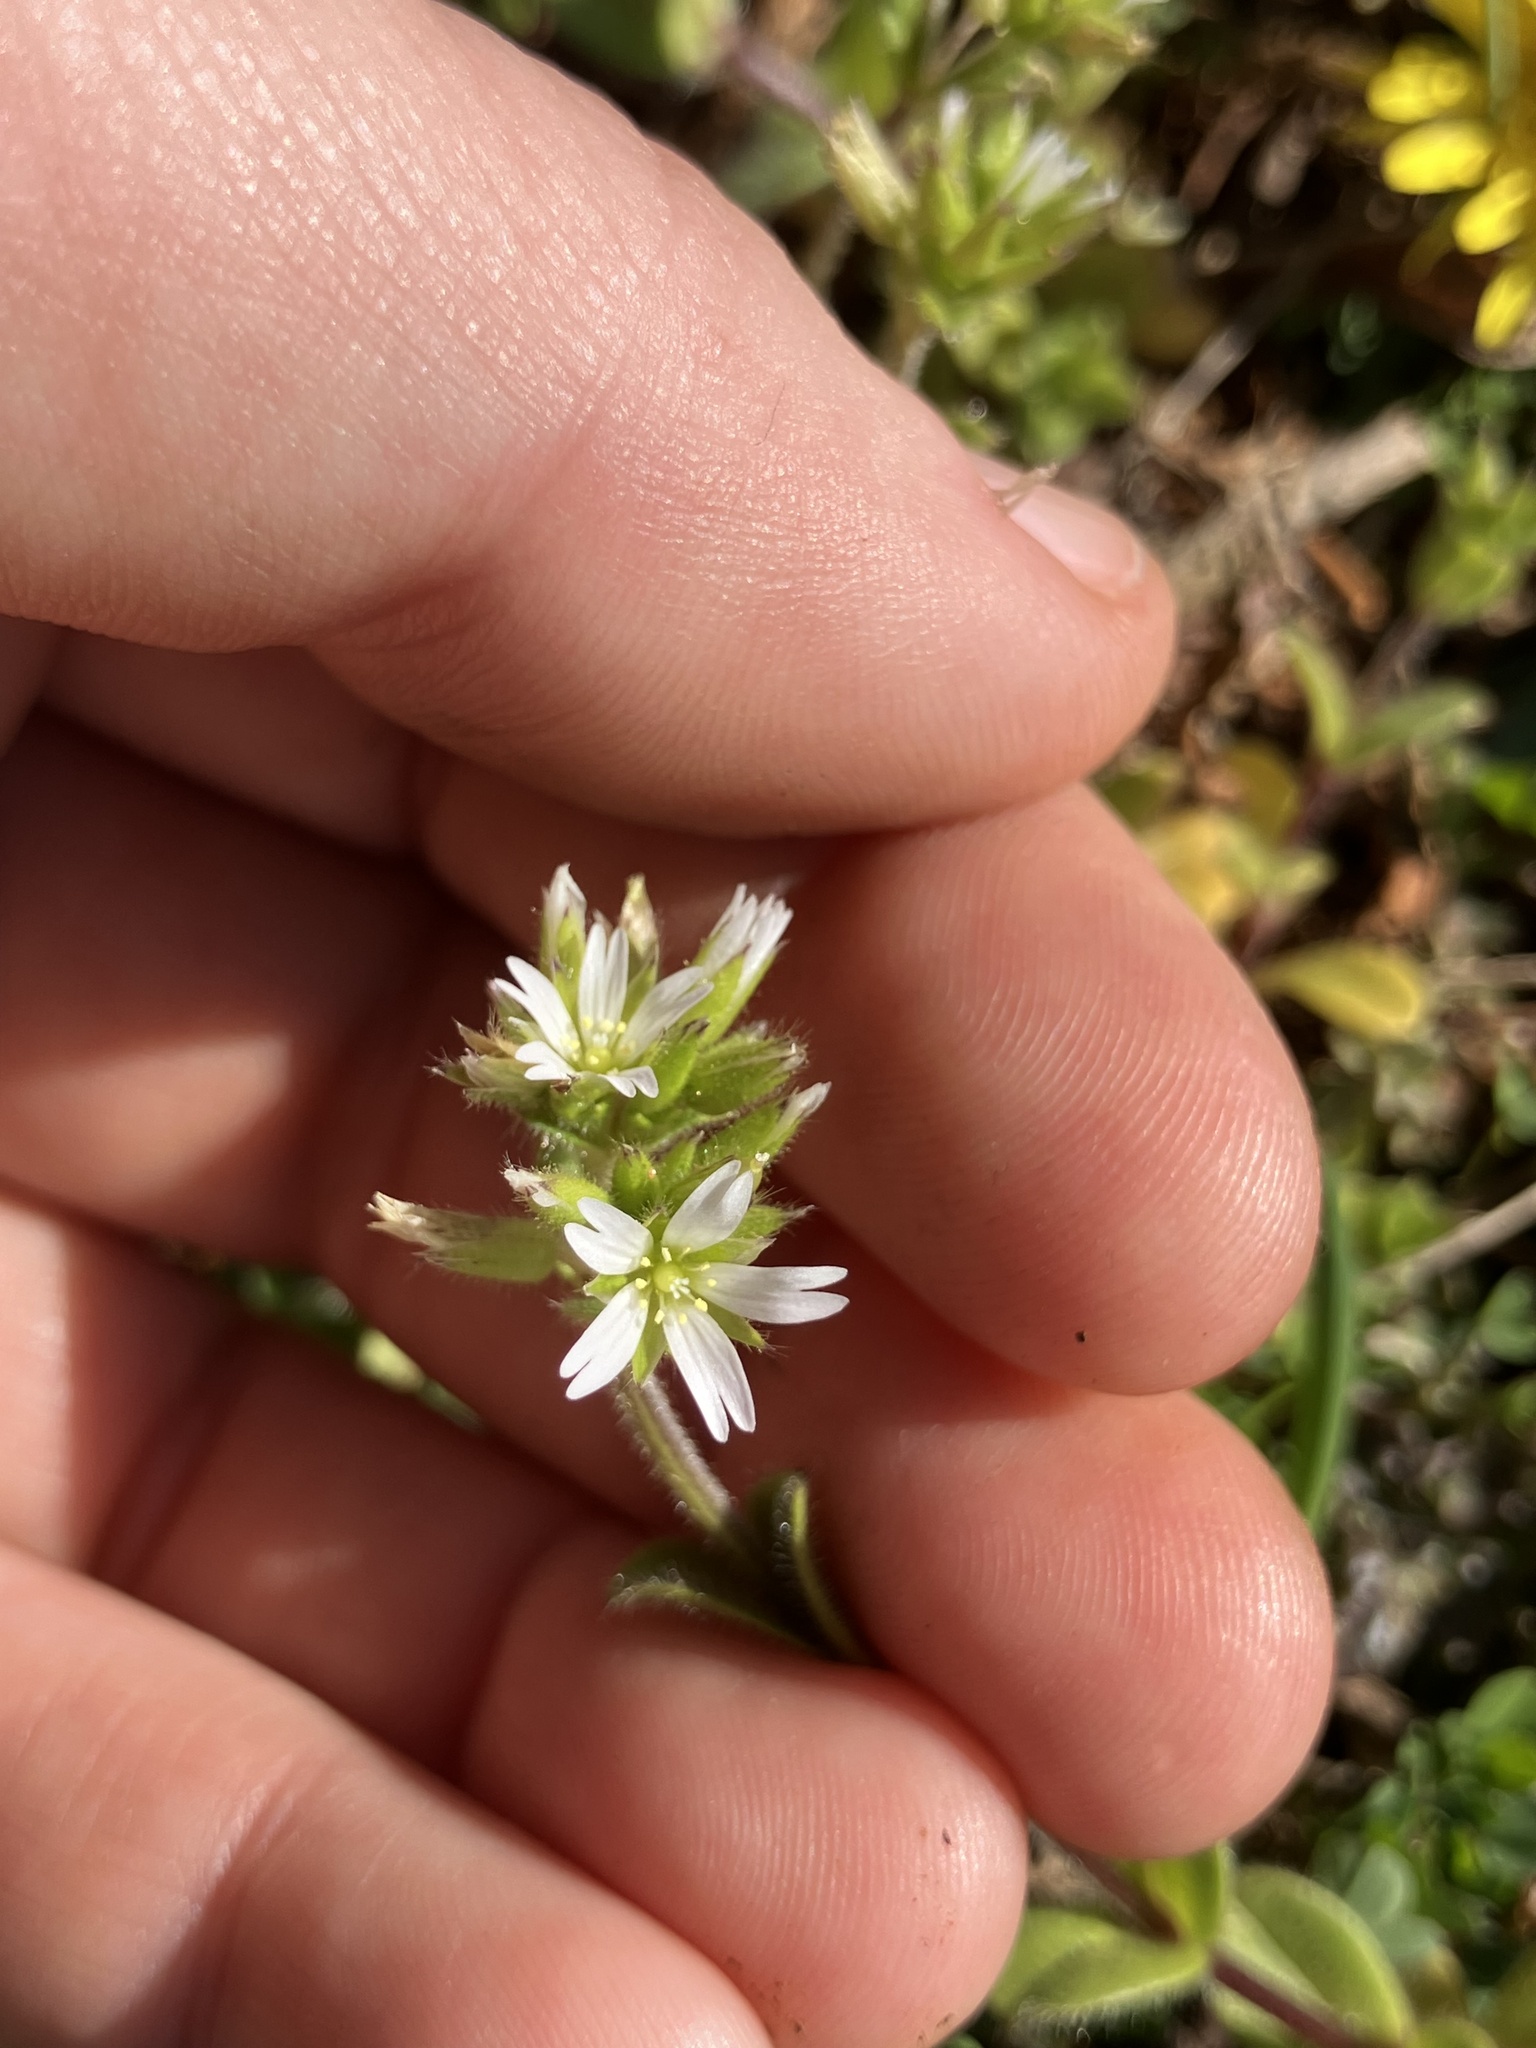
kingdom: Plantae
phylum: Tracheophyta
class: Magnoliopsida
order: Caryophyllales
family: Caryophyllaceae
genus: Cerastium
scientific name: Cerastium glomeratum
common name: Sticky chickweed
